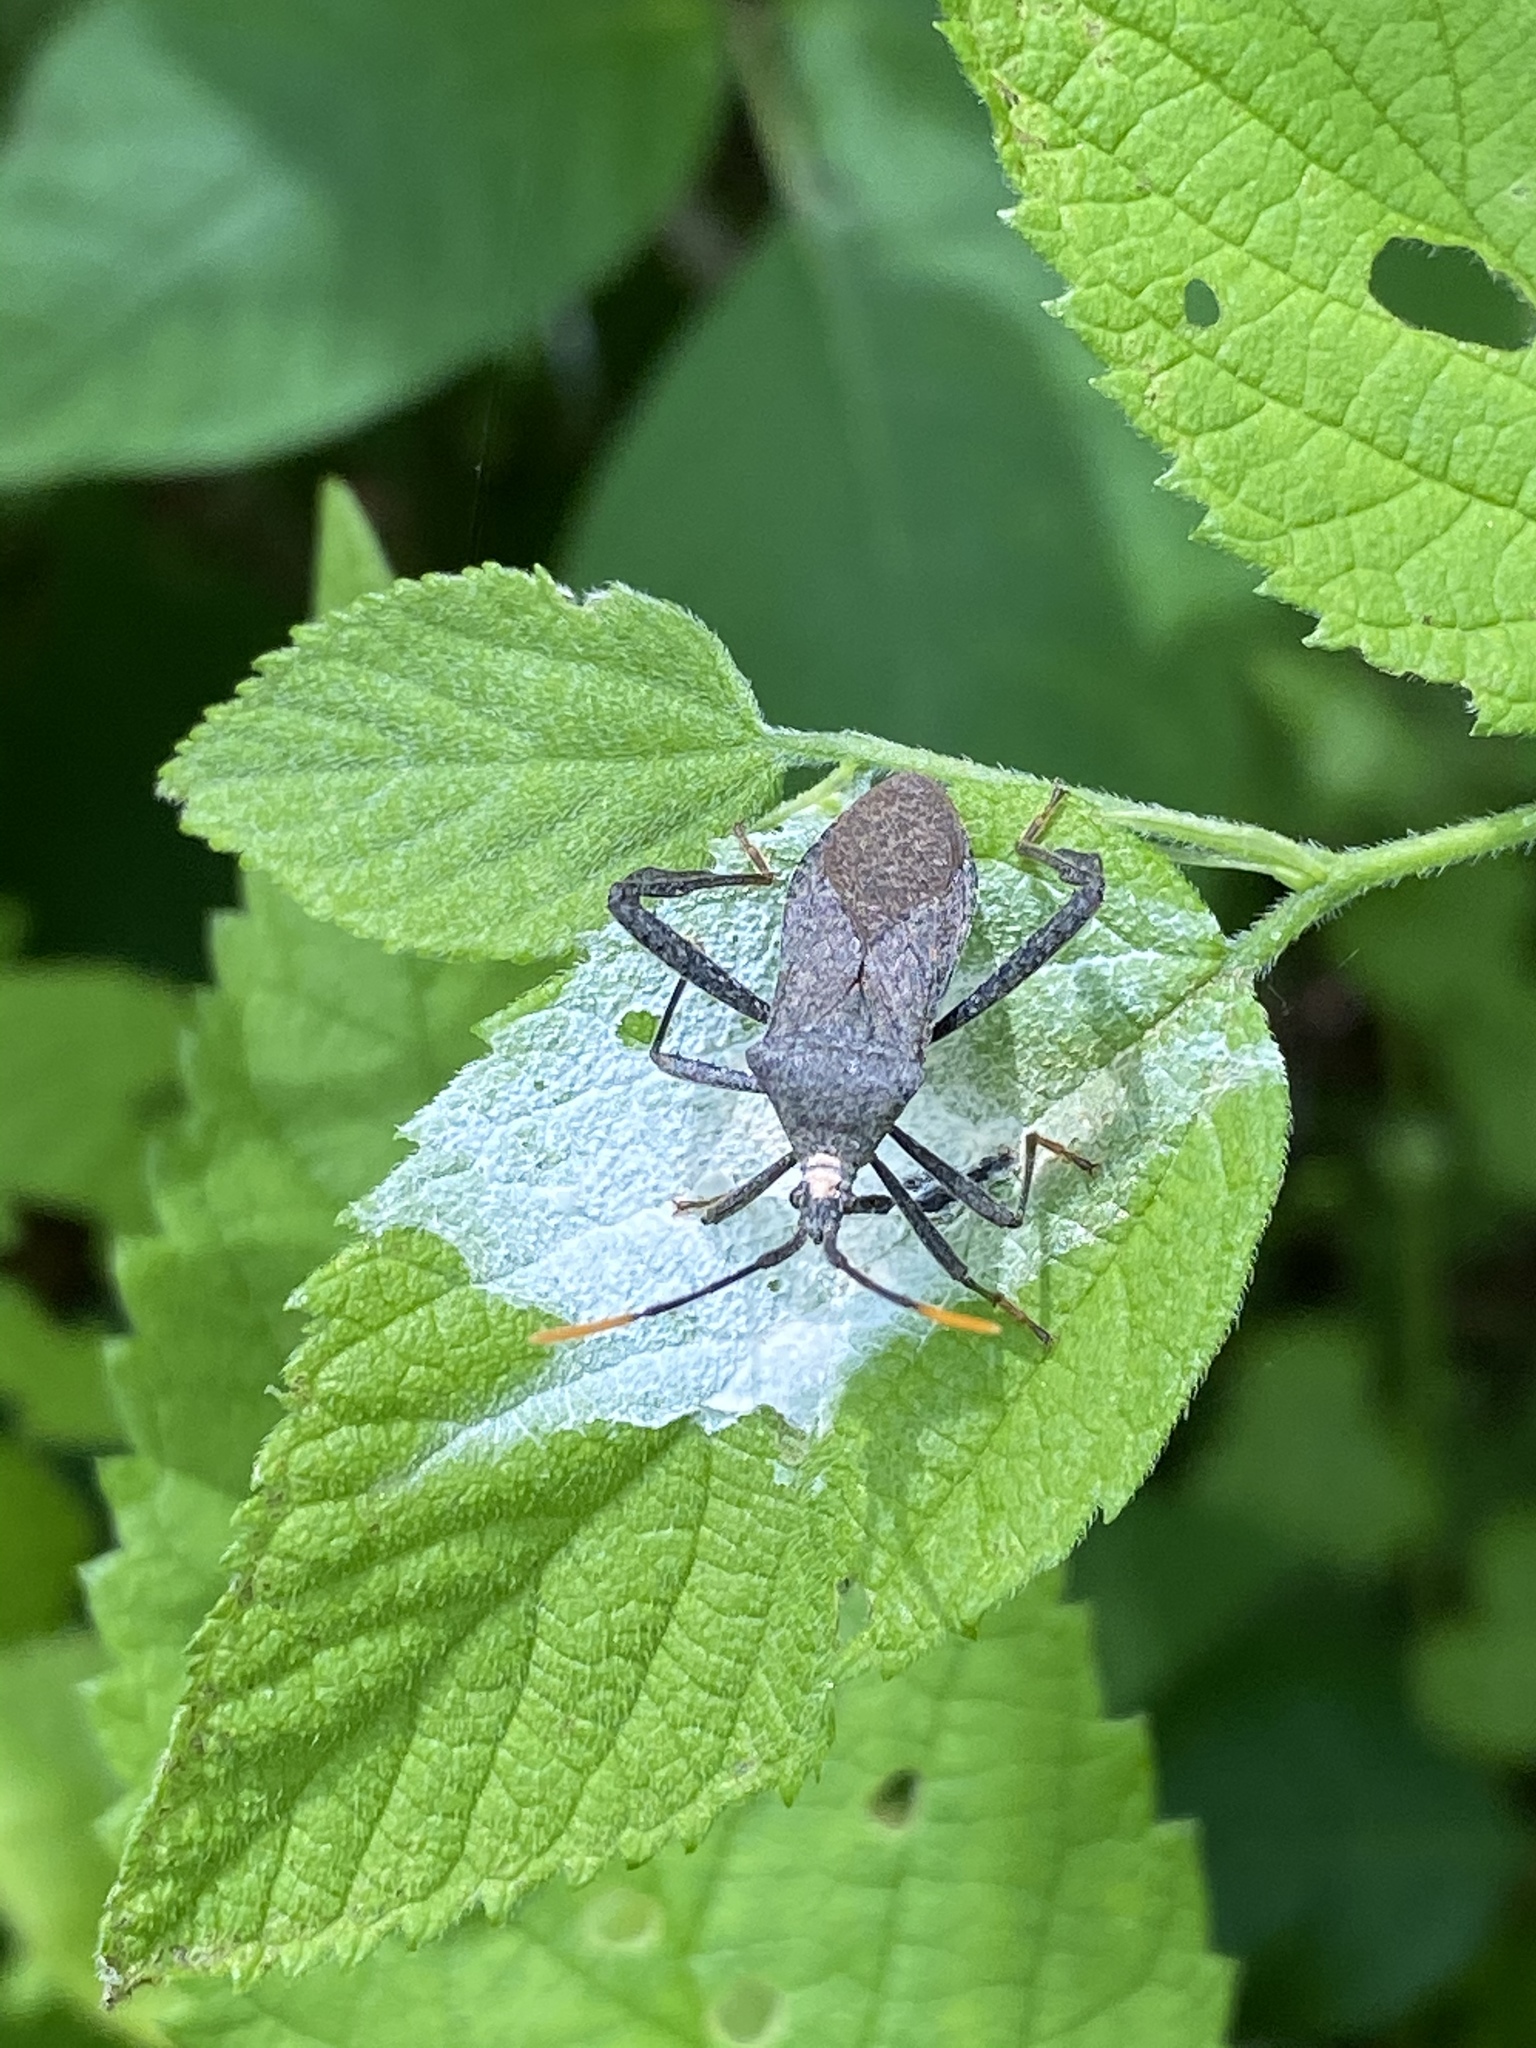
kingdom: Animalia
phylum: Arthropoda
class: Insecta
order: Hemiptera
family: Coreidae
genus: Acanthocephala
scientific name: Acanthocephala terminalis
